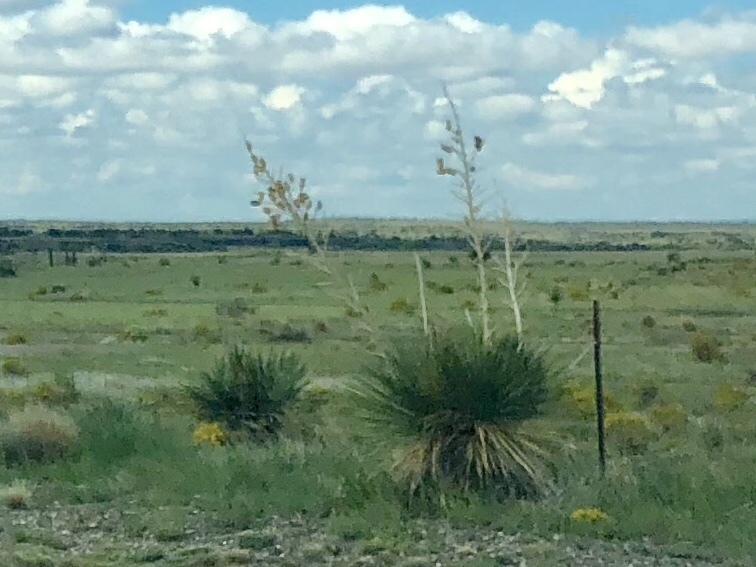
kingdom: Plantae
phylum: Tracheophyta
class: Liliopsida
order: Asparagales
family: Asparagaceae
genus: Yucca
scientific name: Yucca elata
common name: Palmella
